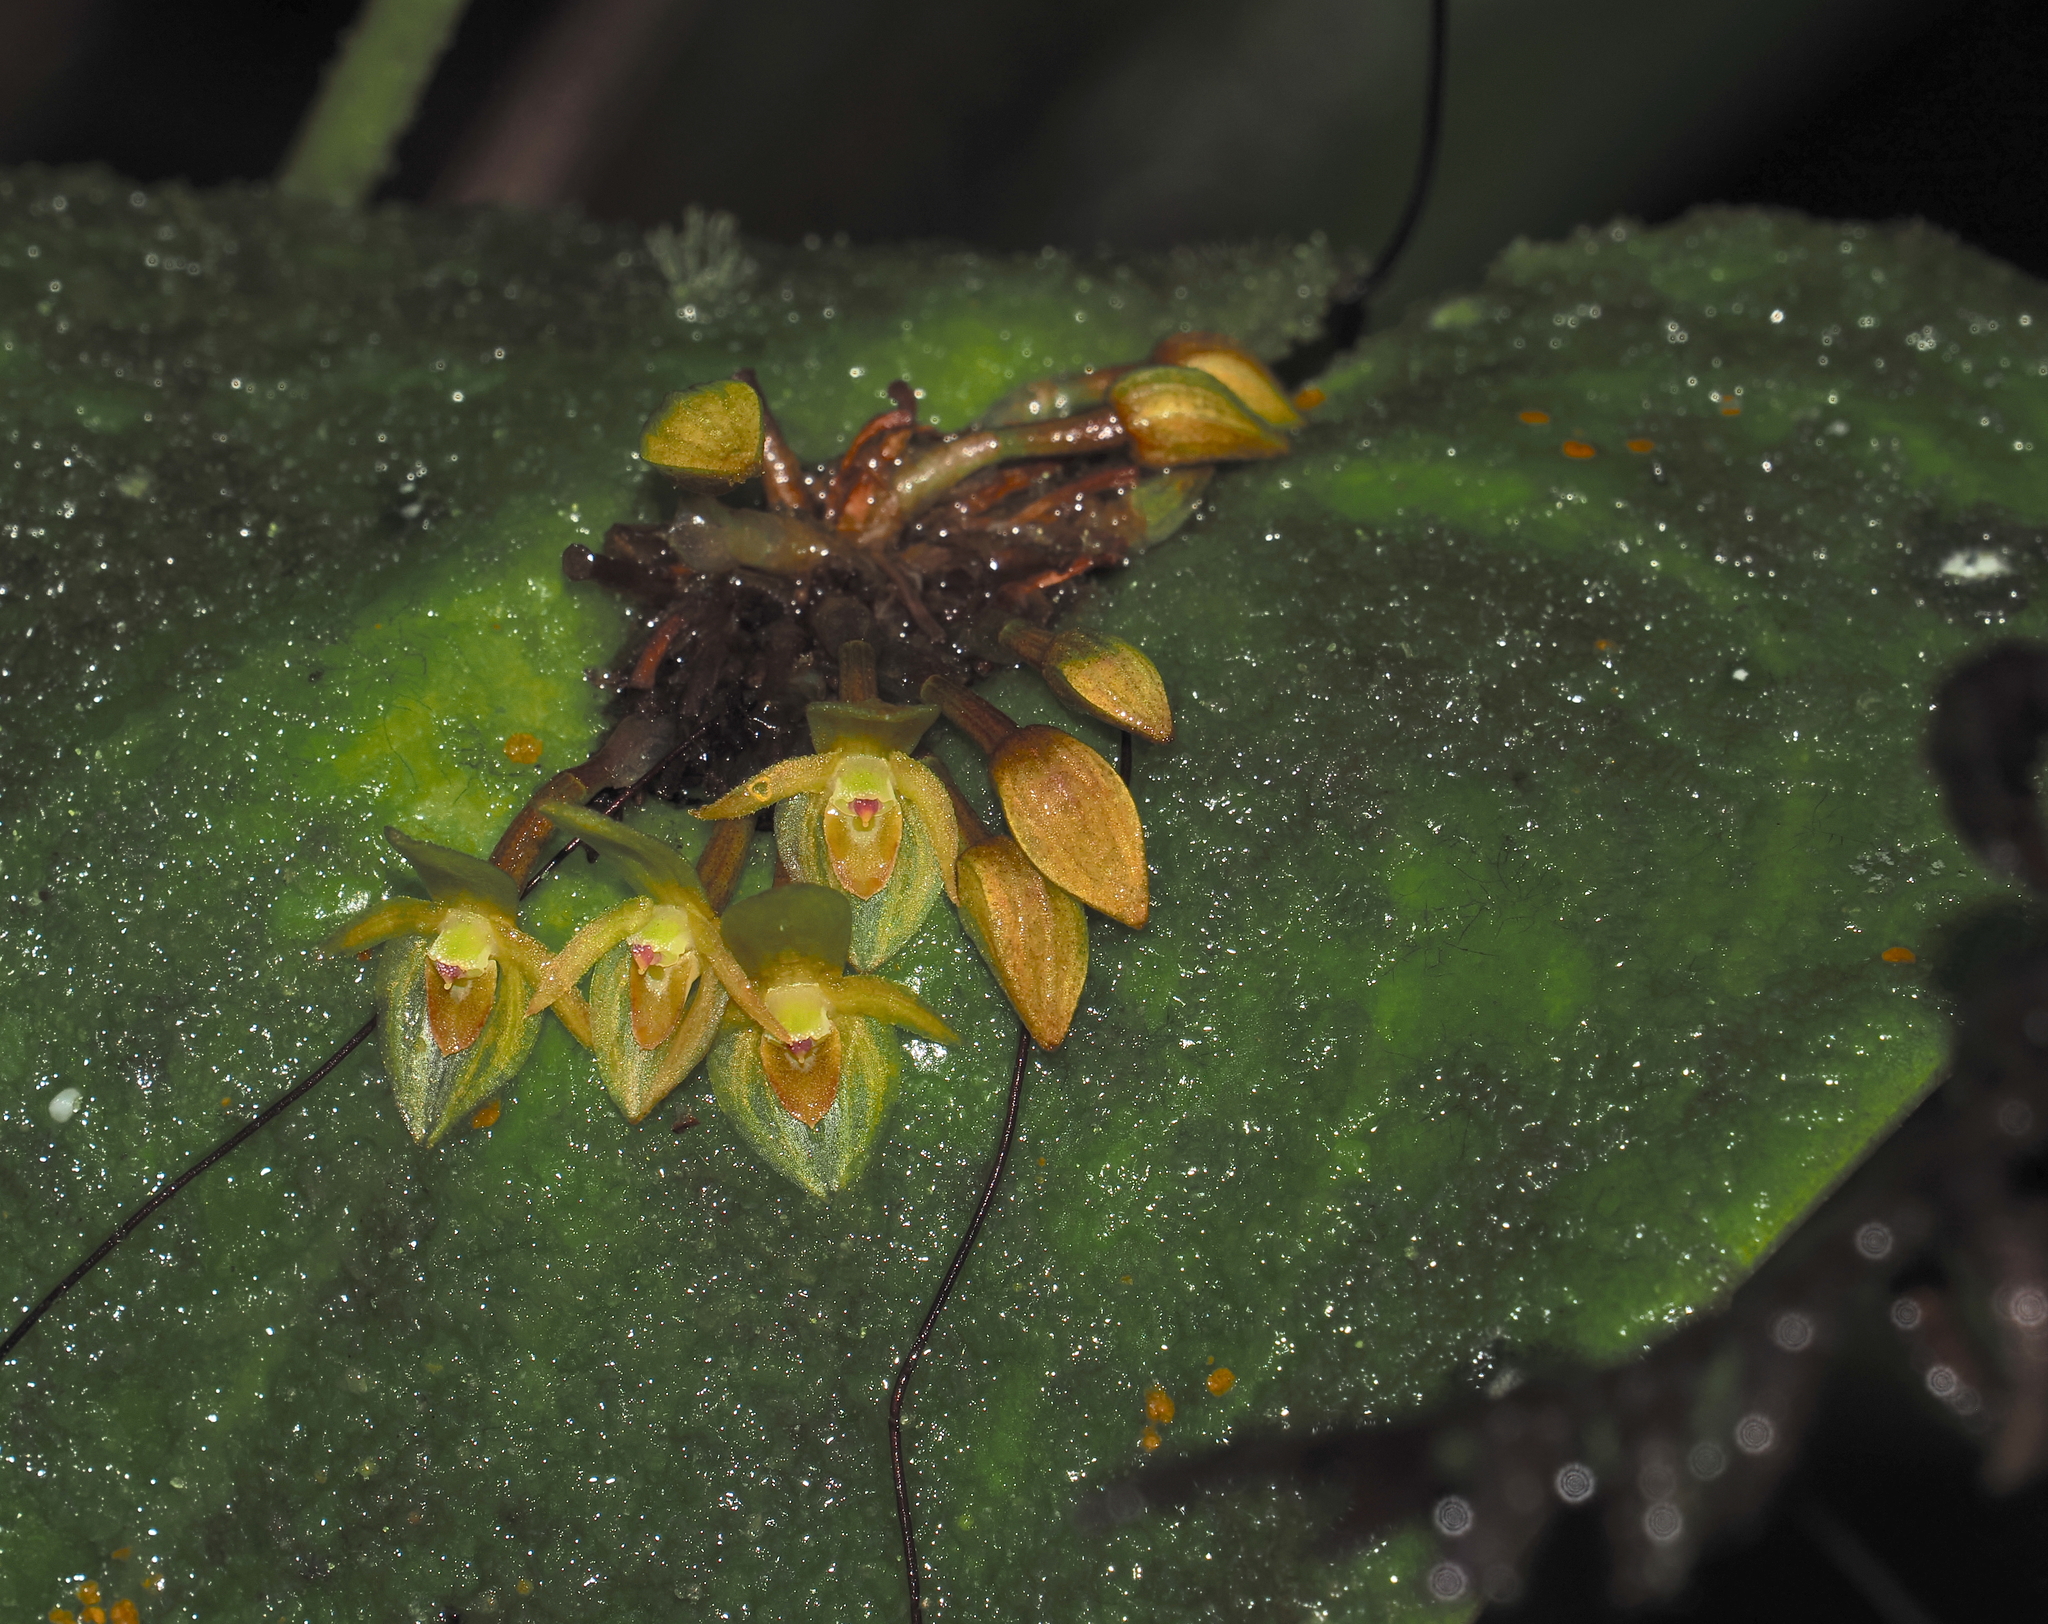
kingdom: Plantae
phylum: Tracheophyta
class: Liliopsida
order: Asparagales
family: Orchidaceae
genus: Pleurothallis
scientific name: Pleurothallis cordata
